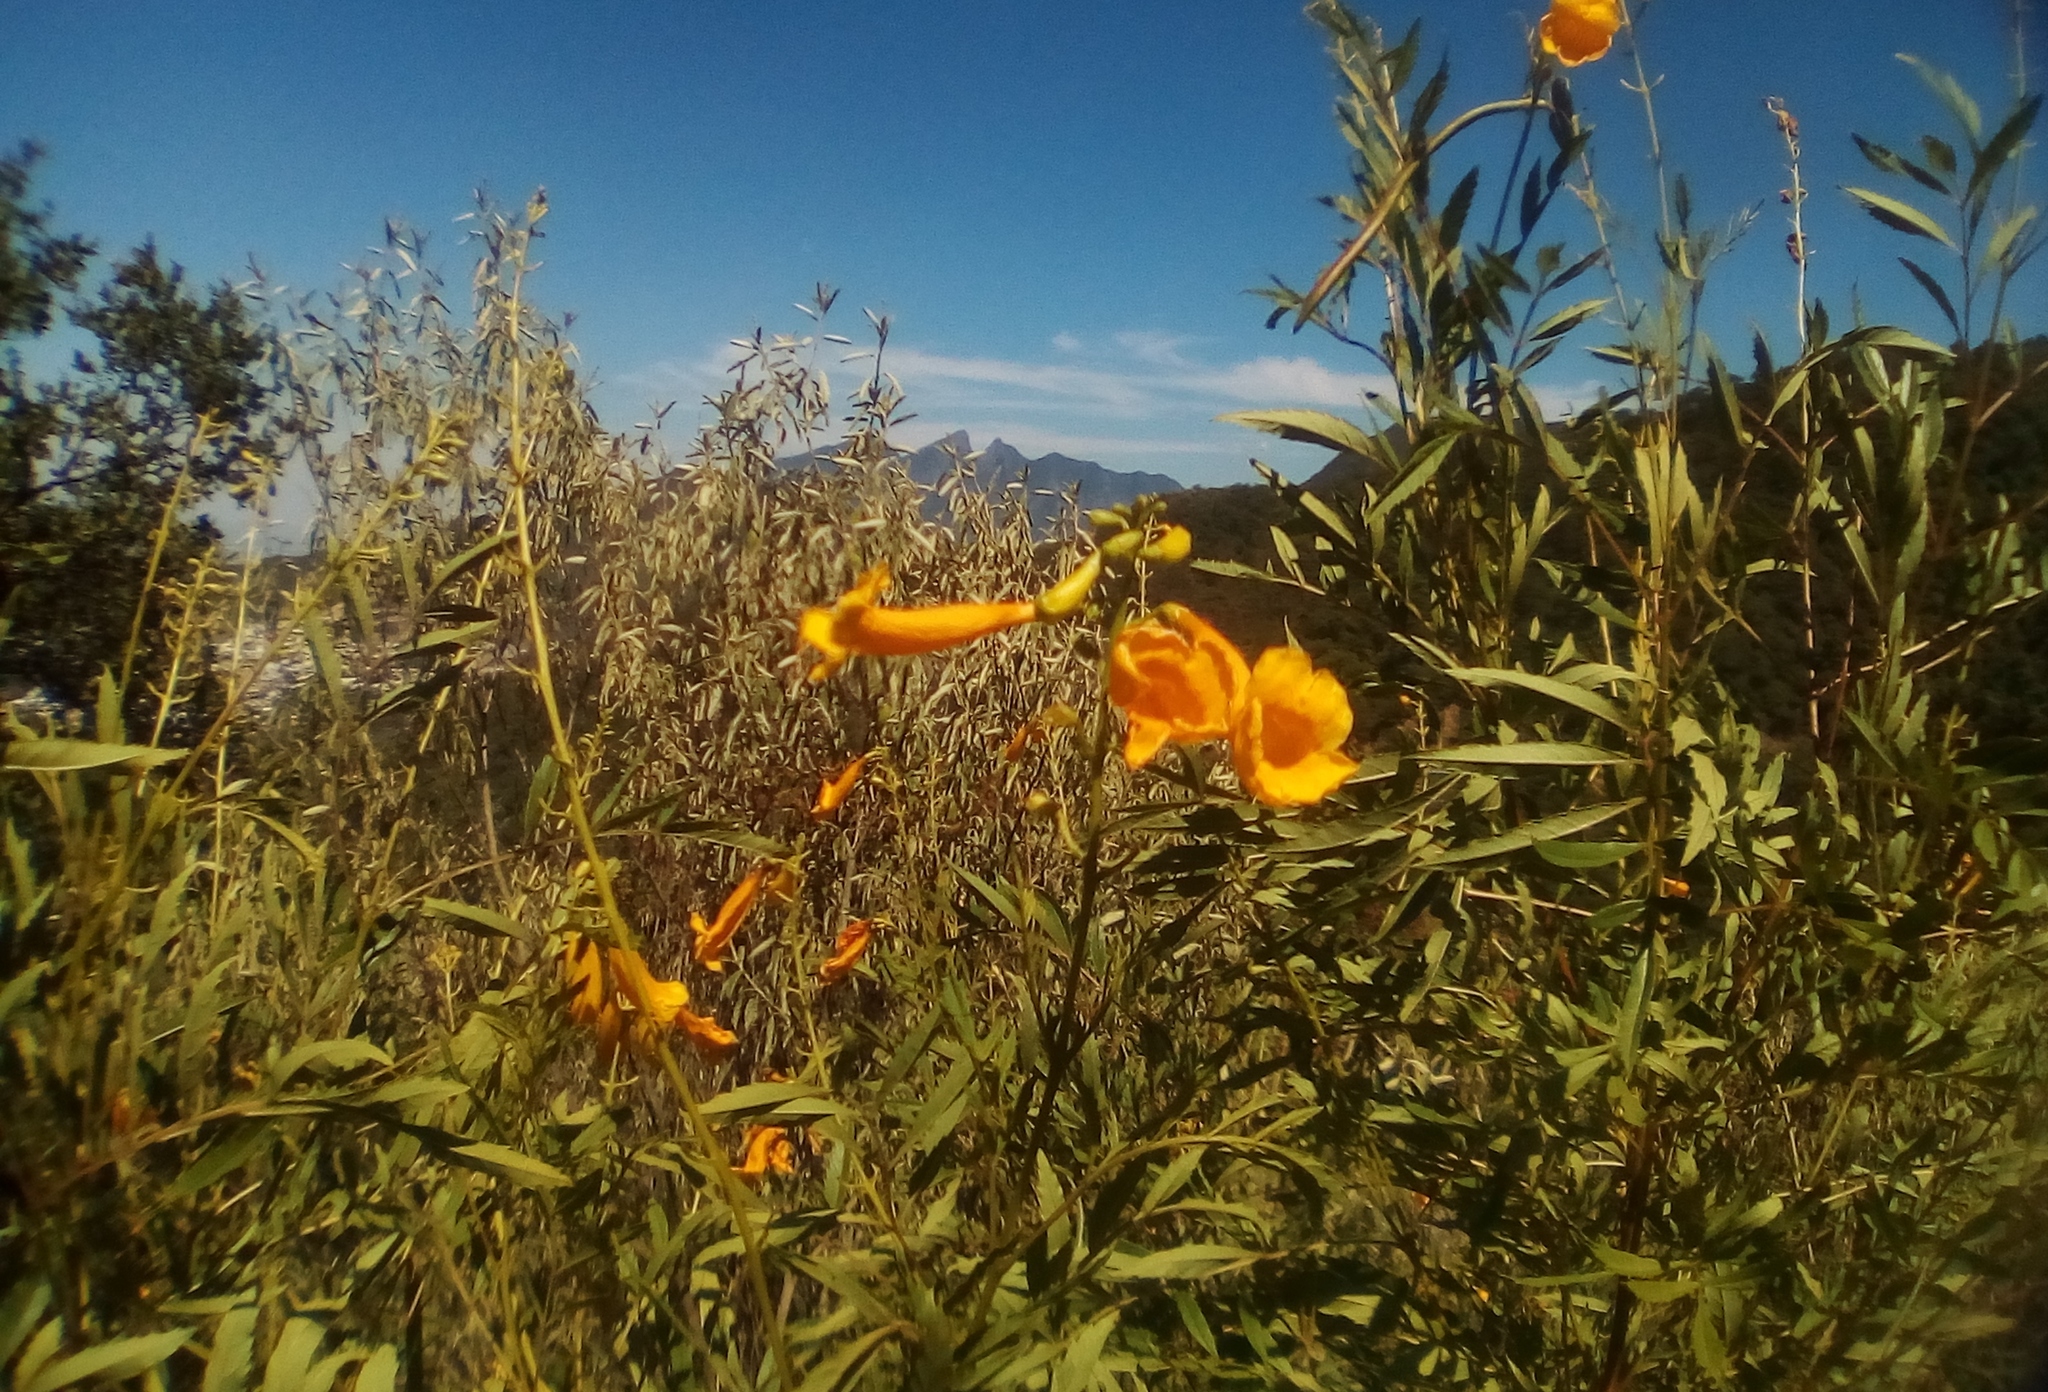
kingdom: Plantae
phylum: Tracheophyta
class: Magnoliopsida
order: Lamiales
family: Bignoniaceae
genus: Tecoma
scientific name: Tecoma stans
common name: Yellow trumpetbush
